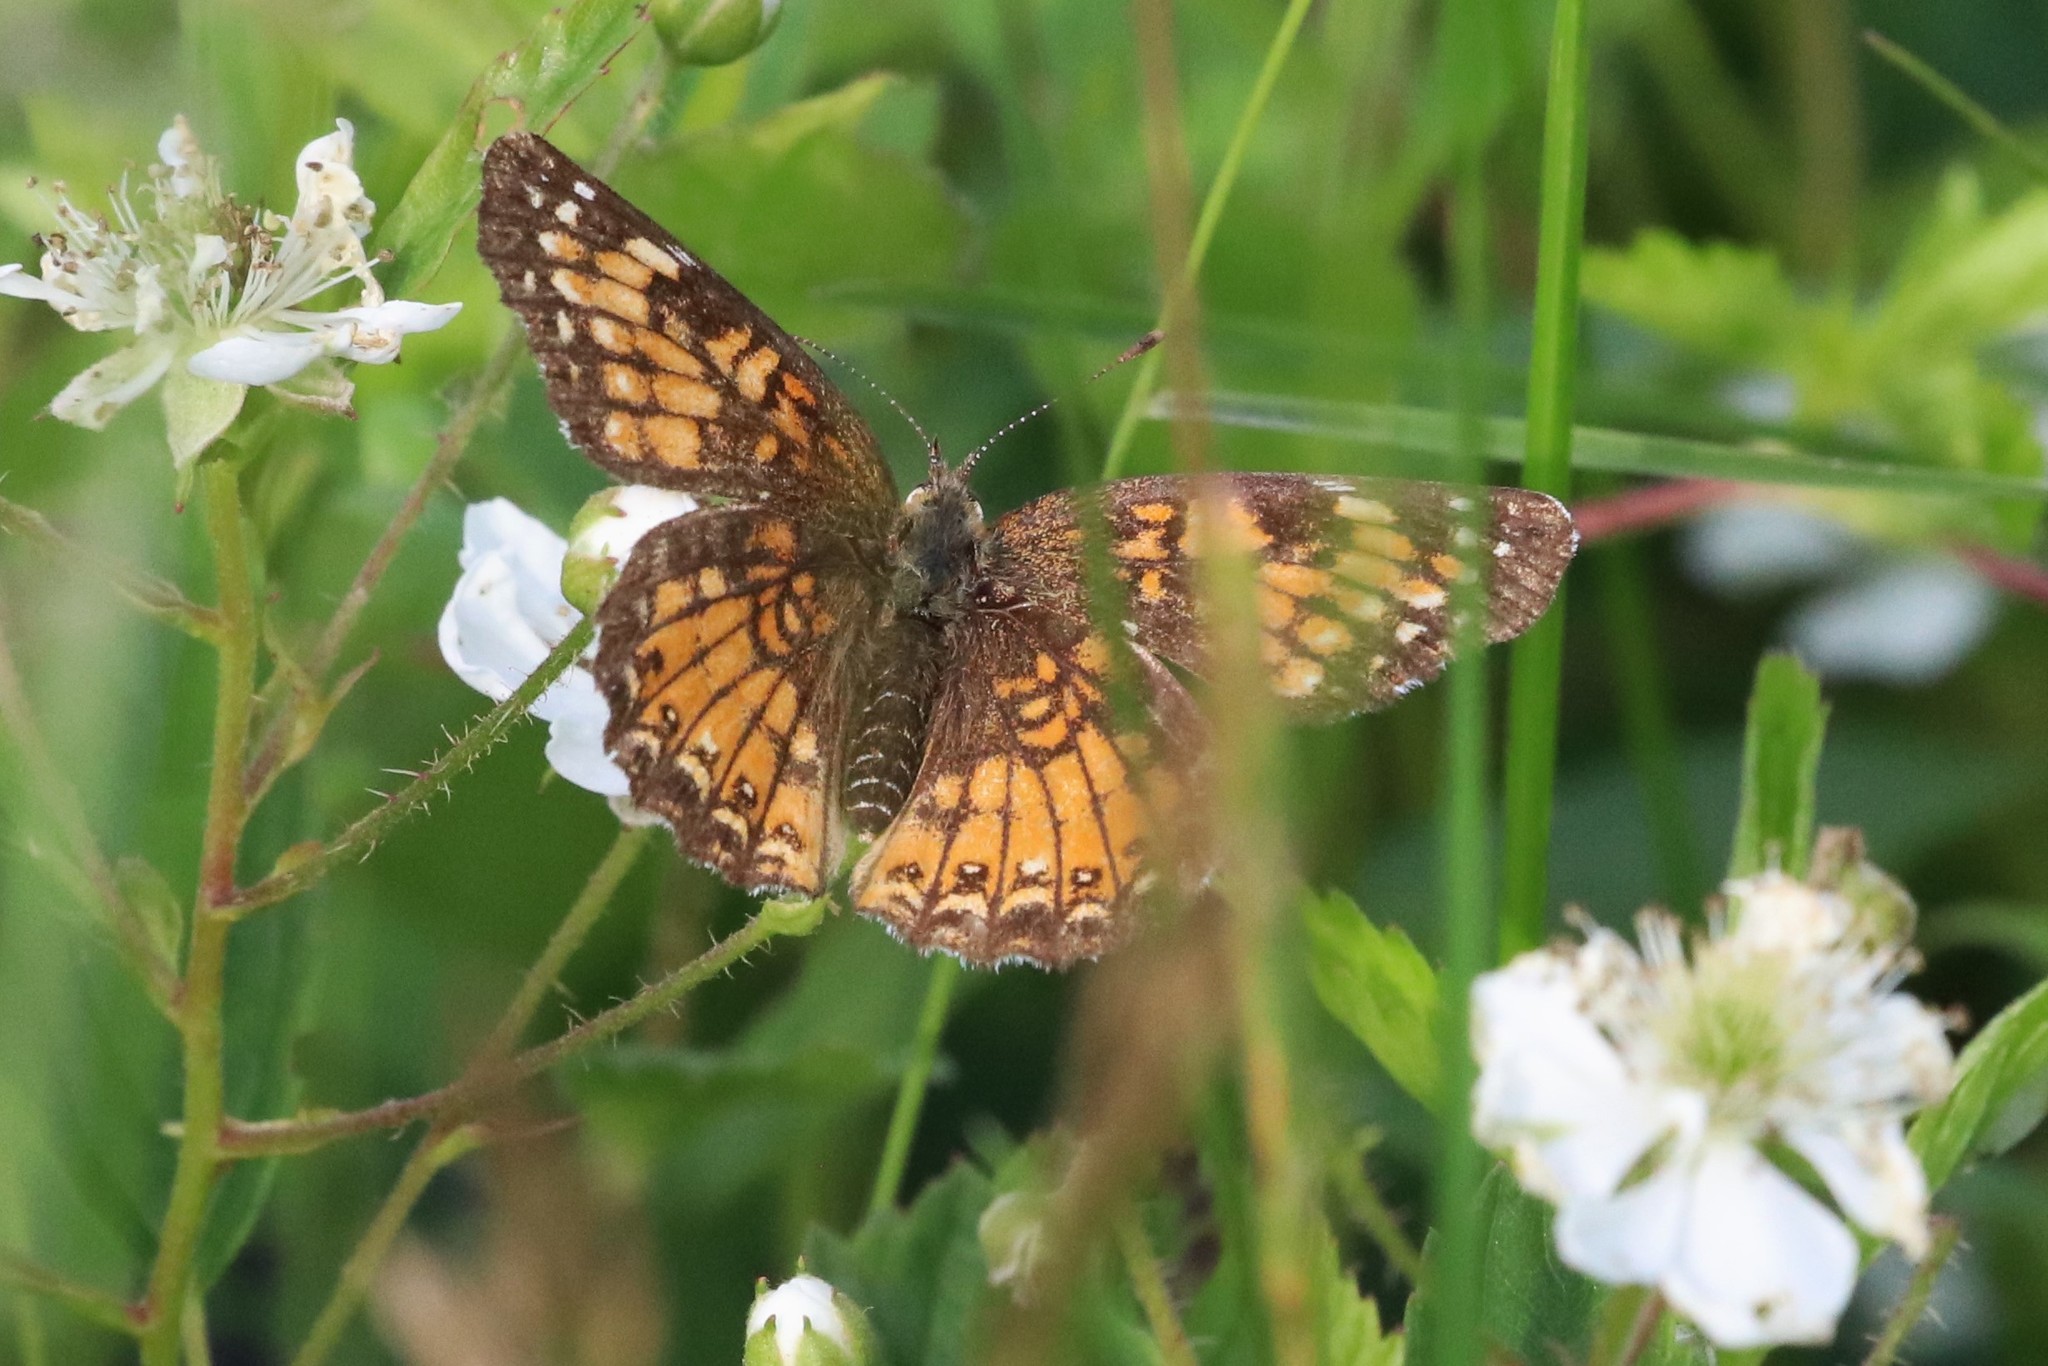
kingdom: Animalia
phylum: Arthropoda
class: Insecta
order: Lepidoptera
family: Nymphalidae
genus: Chlosyne
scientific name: Chlosyne harrisii
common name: Harris's checkerspot
